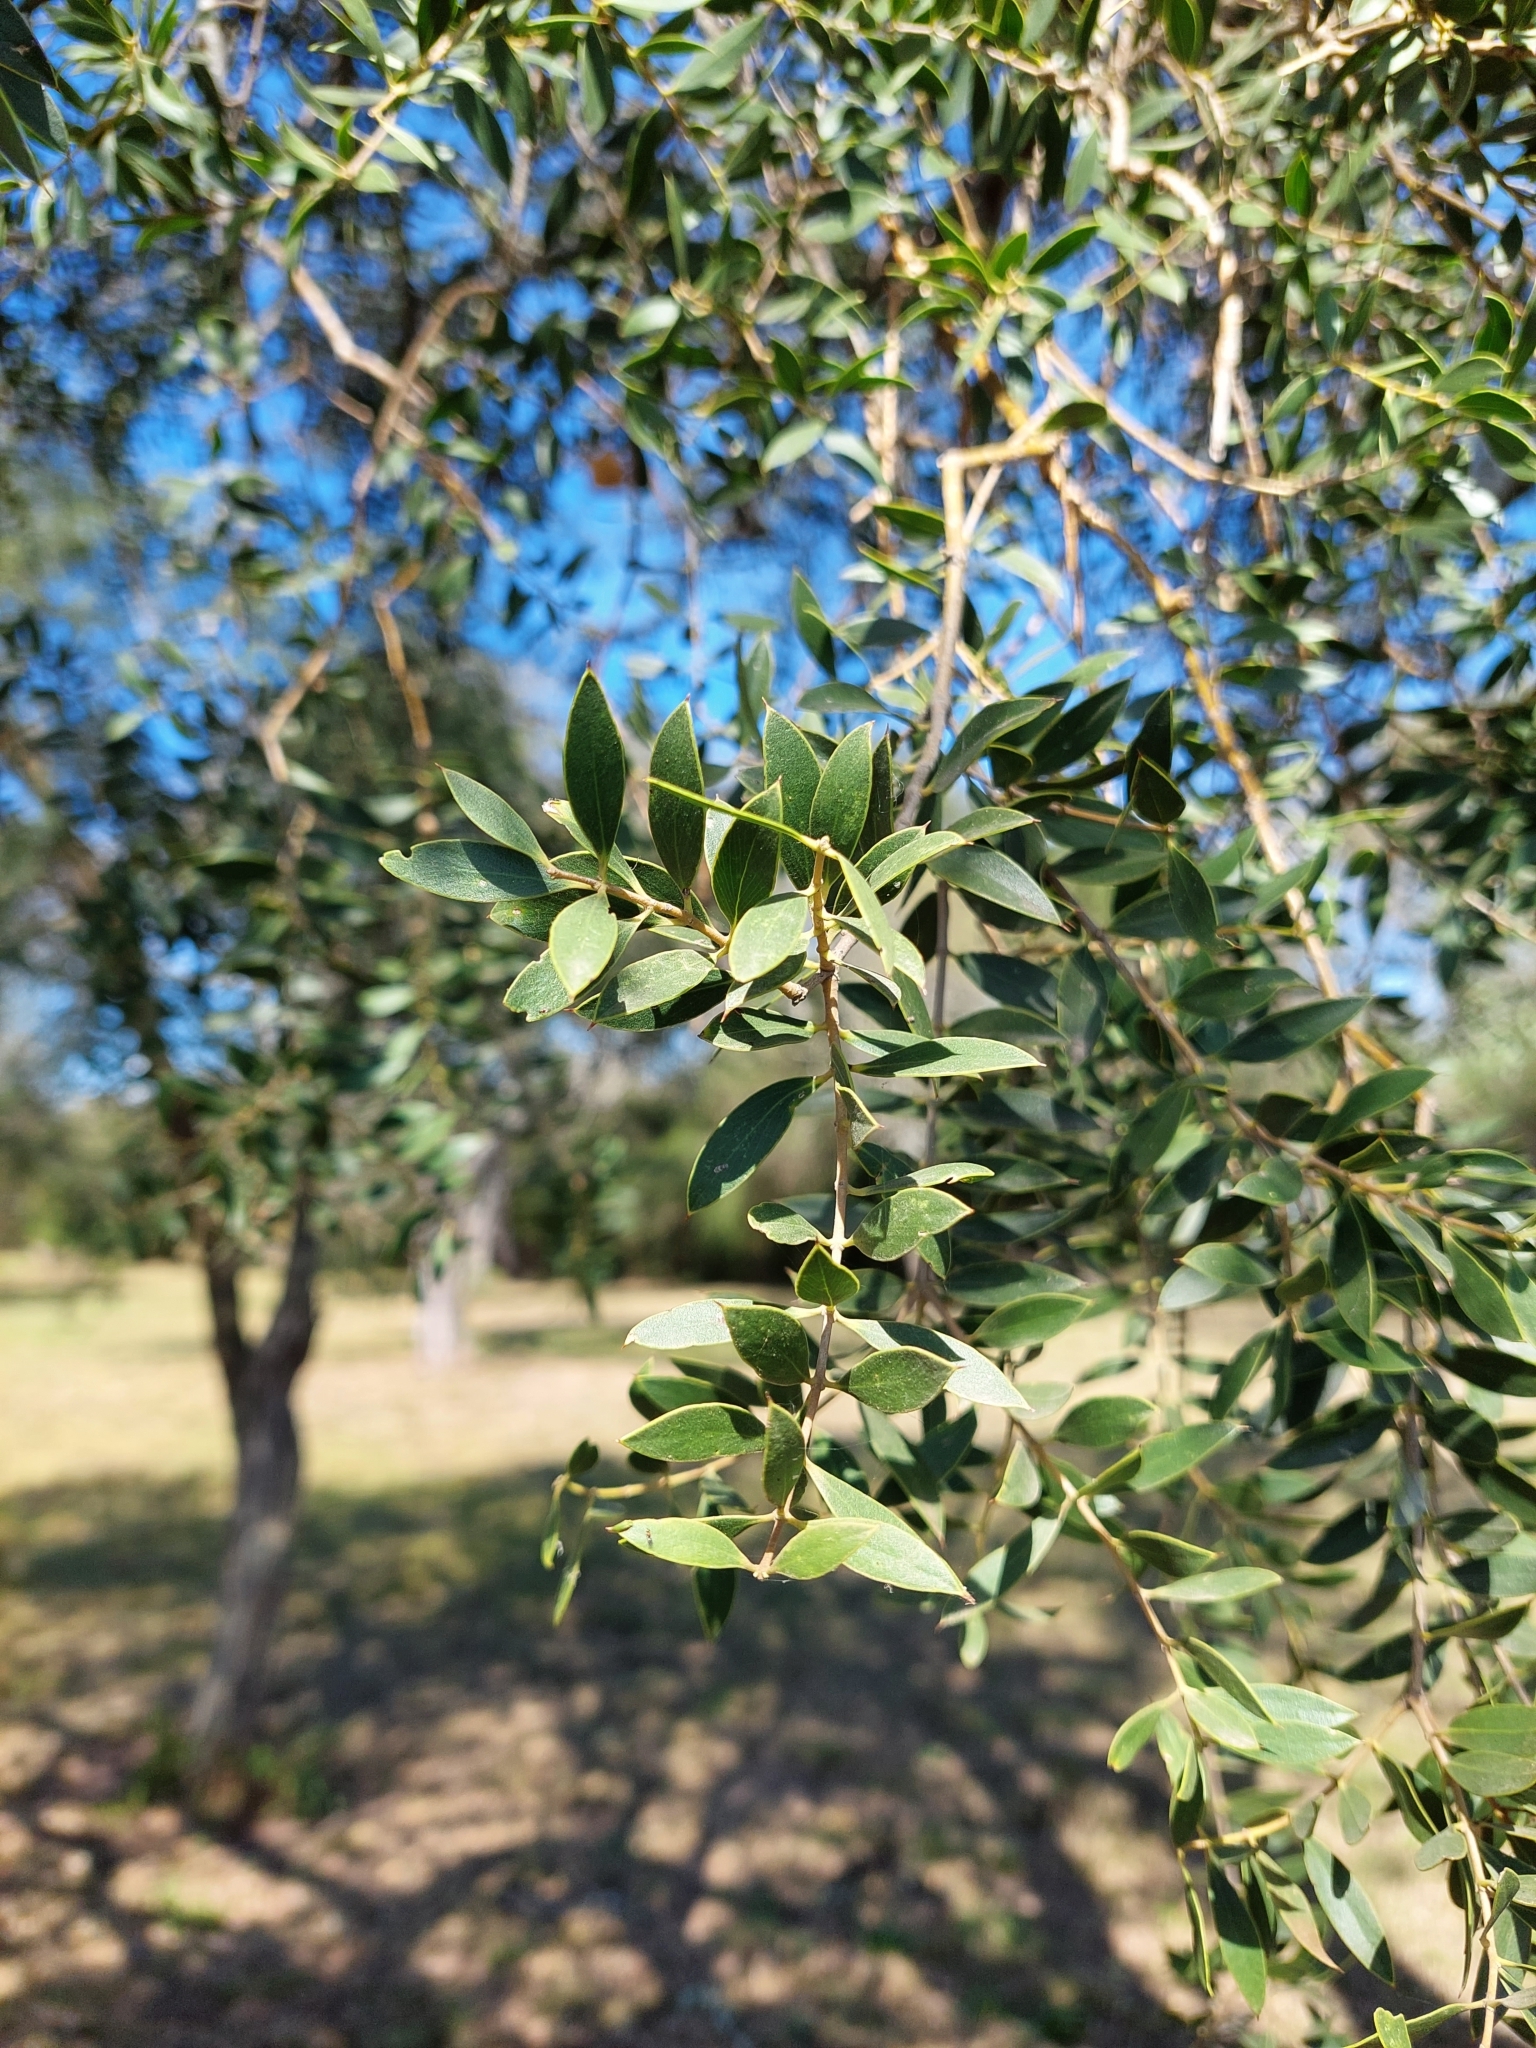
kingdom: Plantae
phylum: Tracheophyta
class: Magnoliopsida
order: Gentianales
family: Apocynaceae
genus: Aspidosperma
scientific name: Aspidosperma quebracho-blanco
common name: White quebracho
